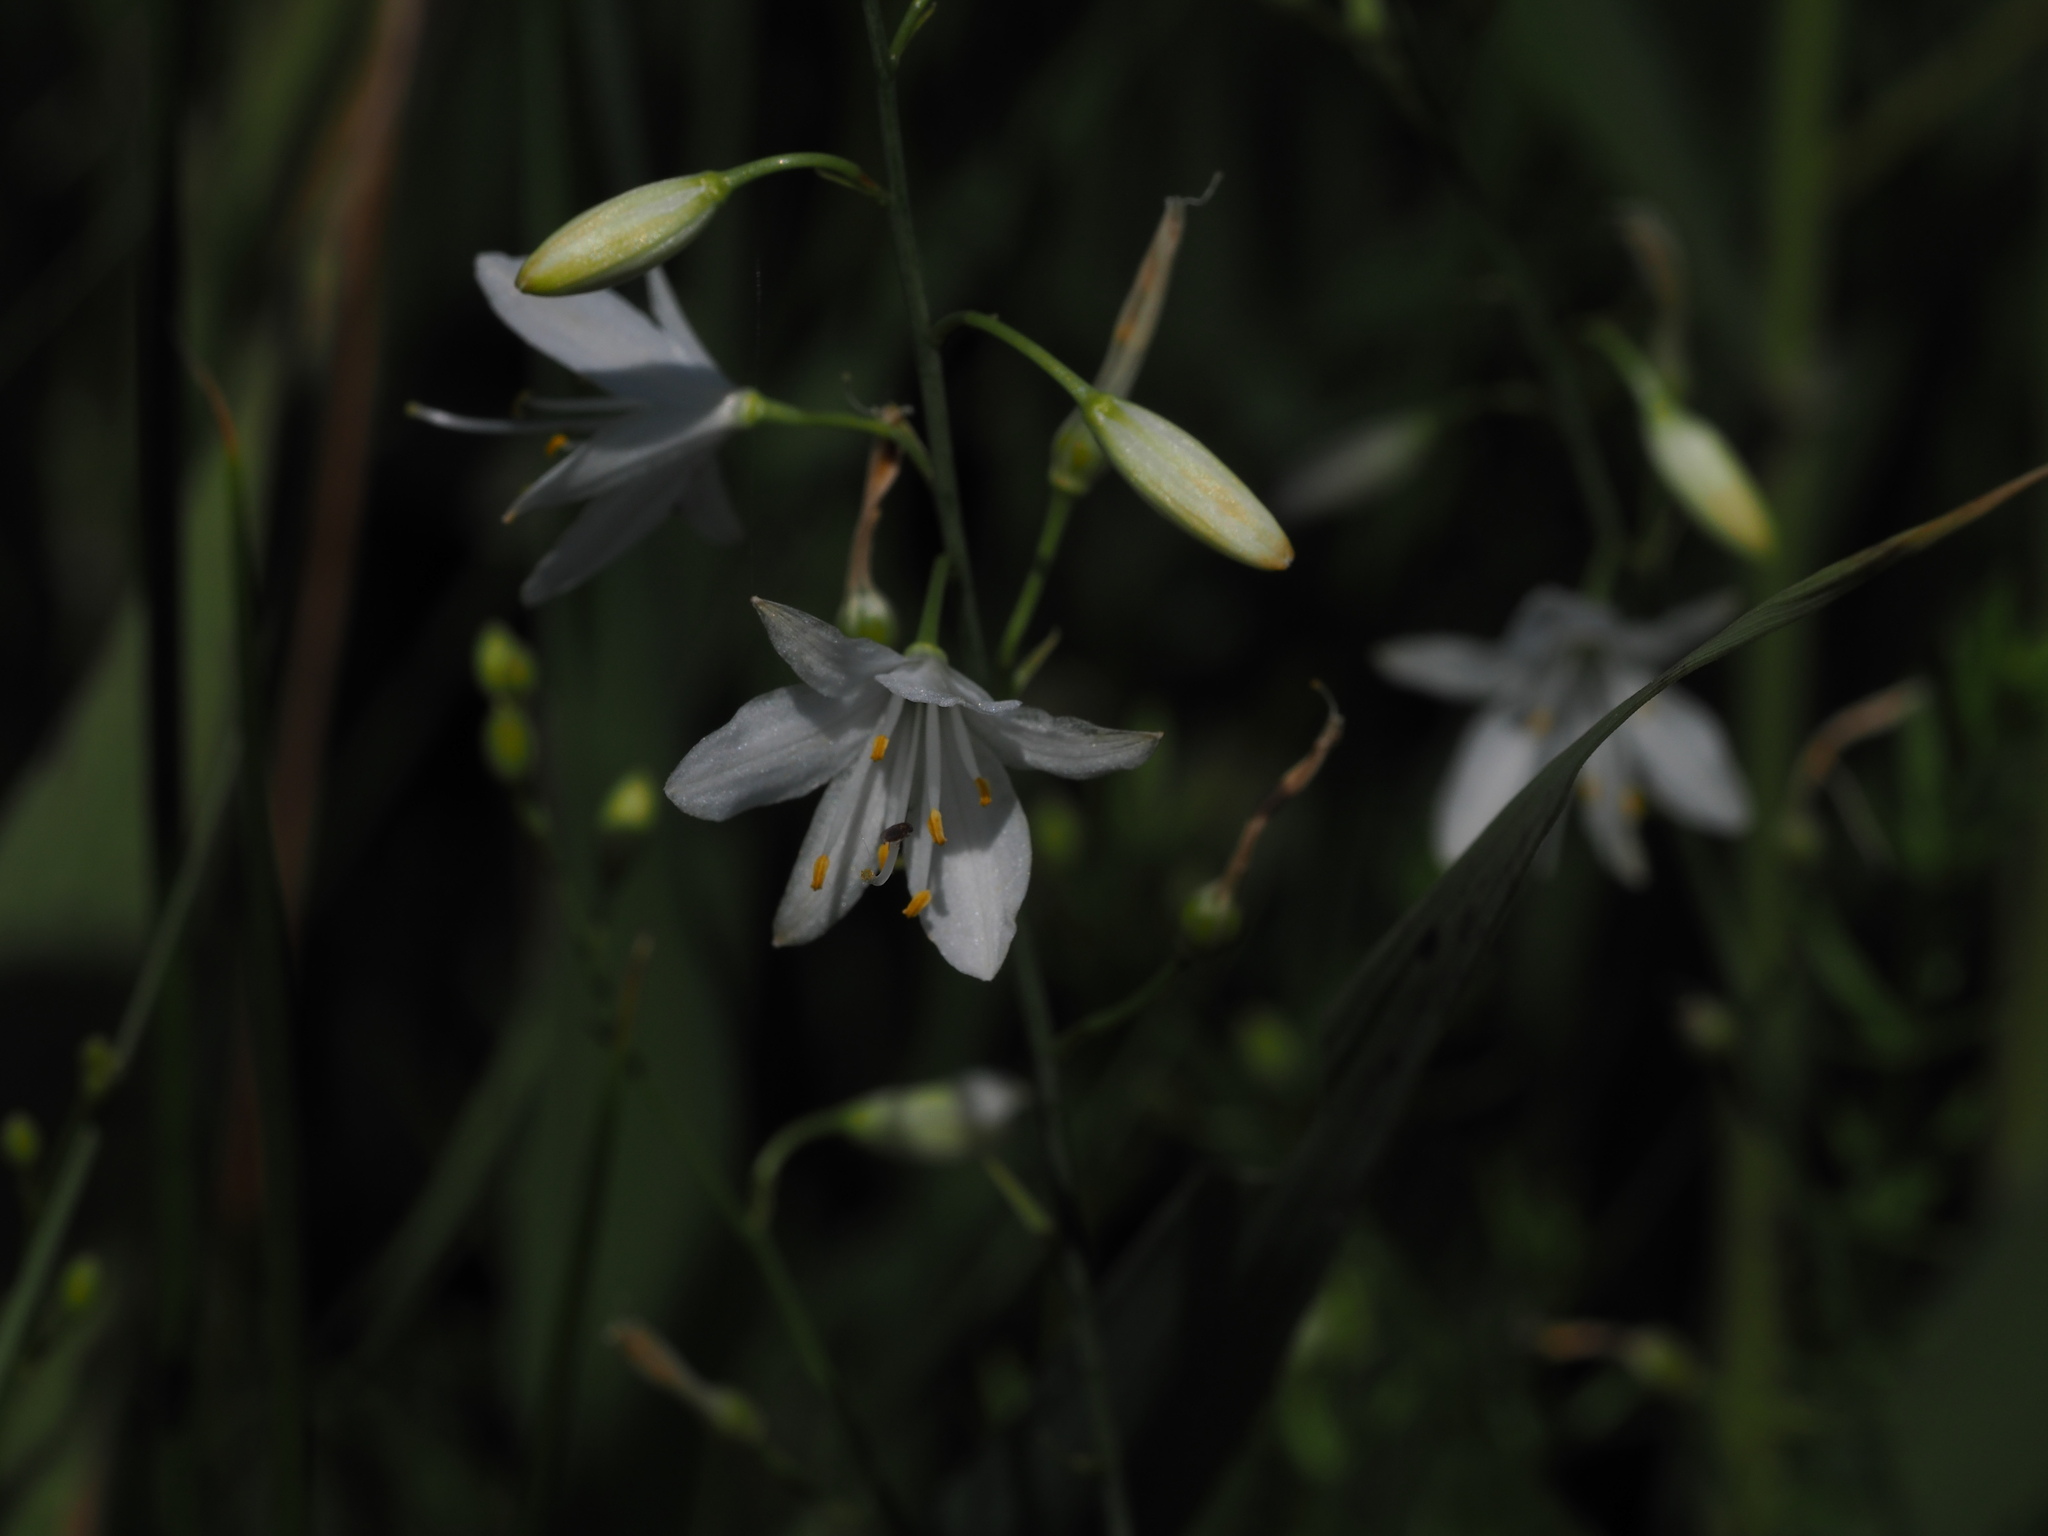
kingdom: Plantae
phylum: Tracheophyta
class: Liliopsida
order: Asparagales
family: Asparagaceae
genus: Anthericum
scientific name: Anthericum ramosum
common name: Branched st. bernard's-lily
